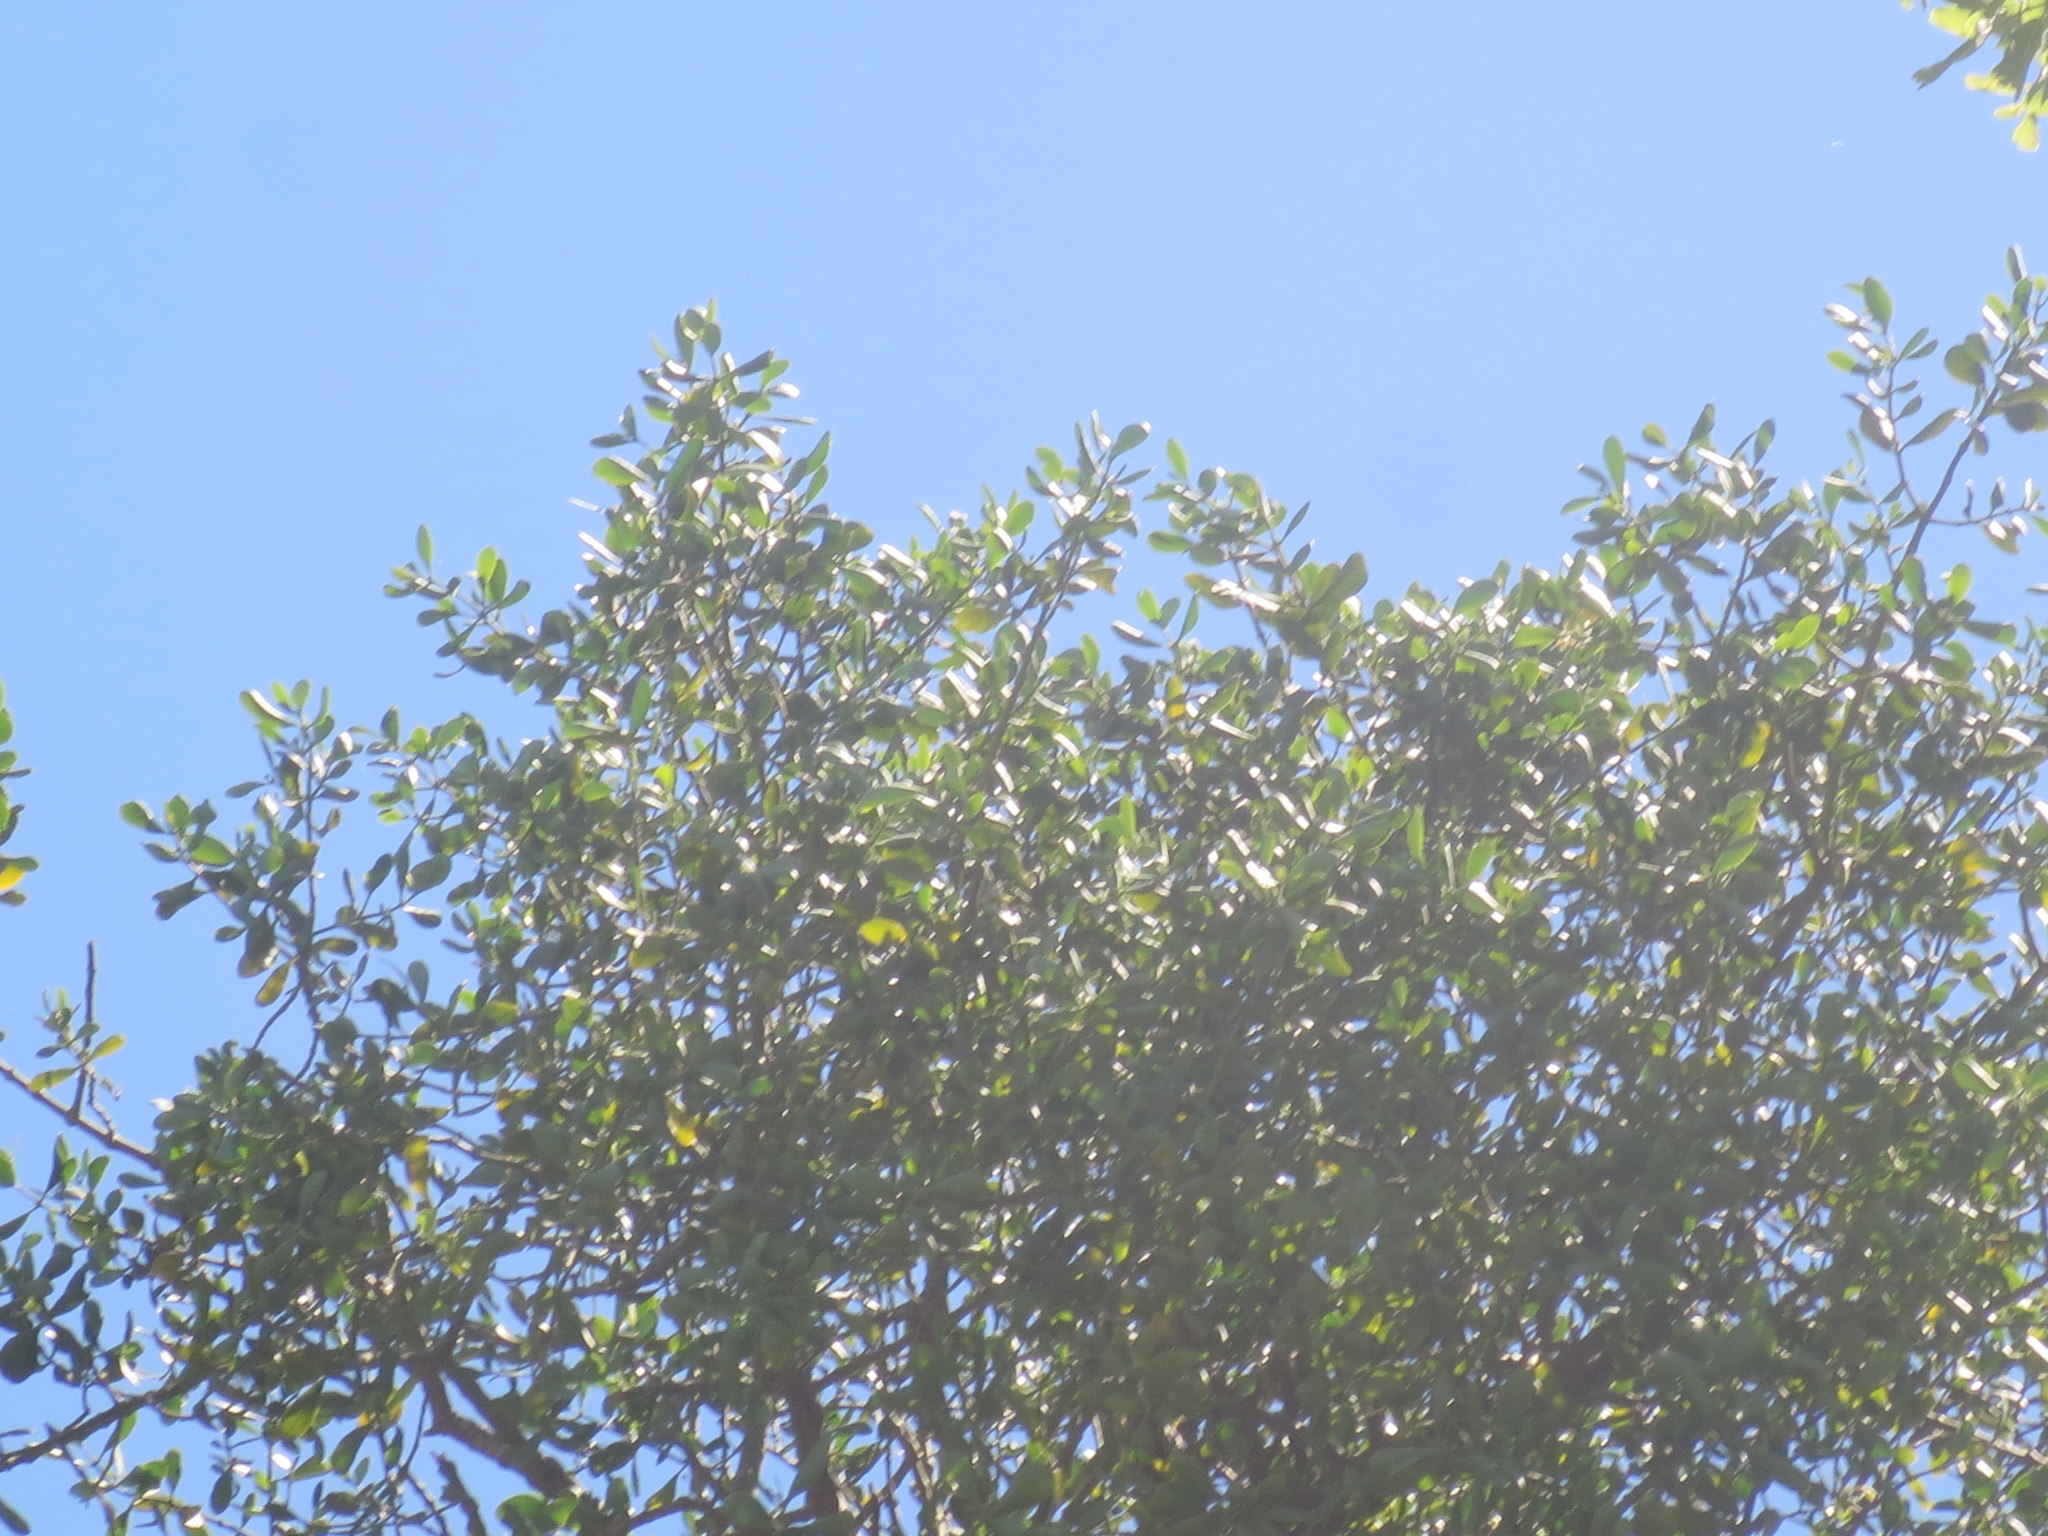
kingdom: Plantae
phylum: Tracheophyta
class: Magnoliopsida
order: Santalales
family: Viscaceae
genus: Phoradendron
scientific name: Phoradendron leucarpum
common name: Pacific mistletoe
